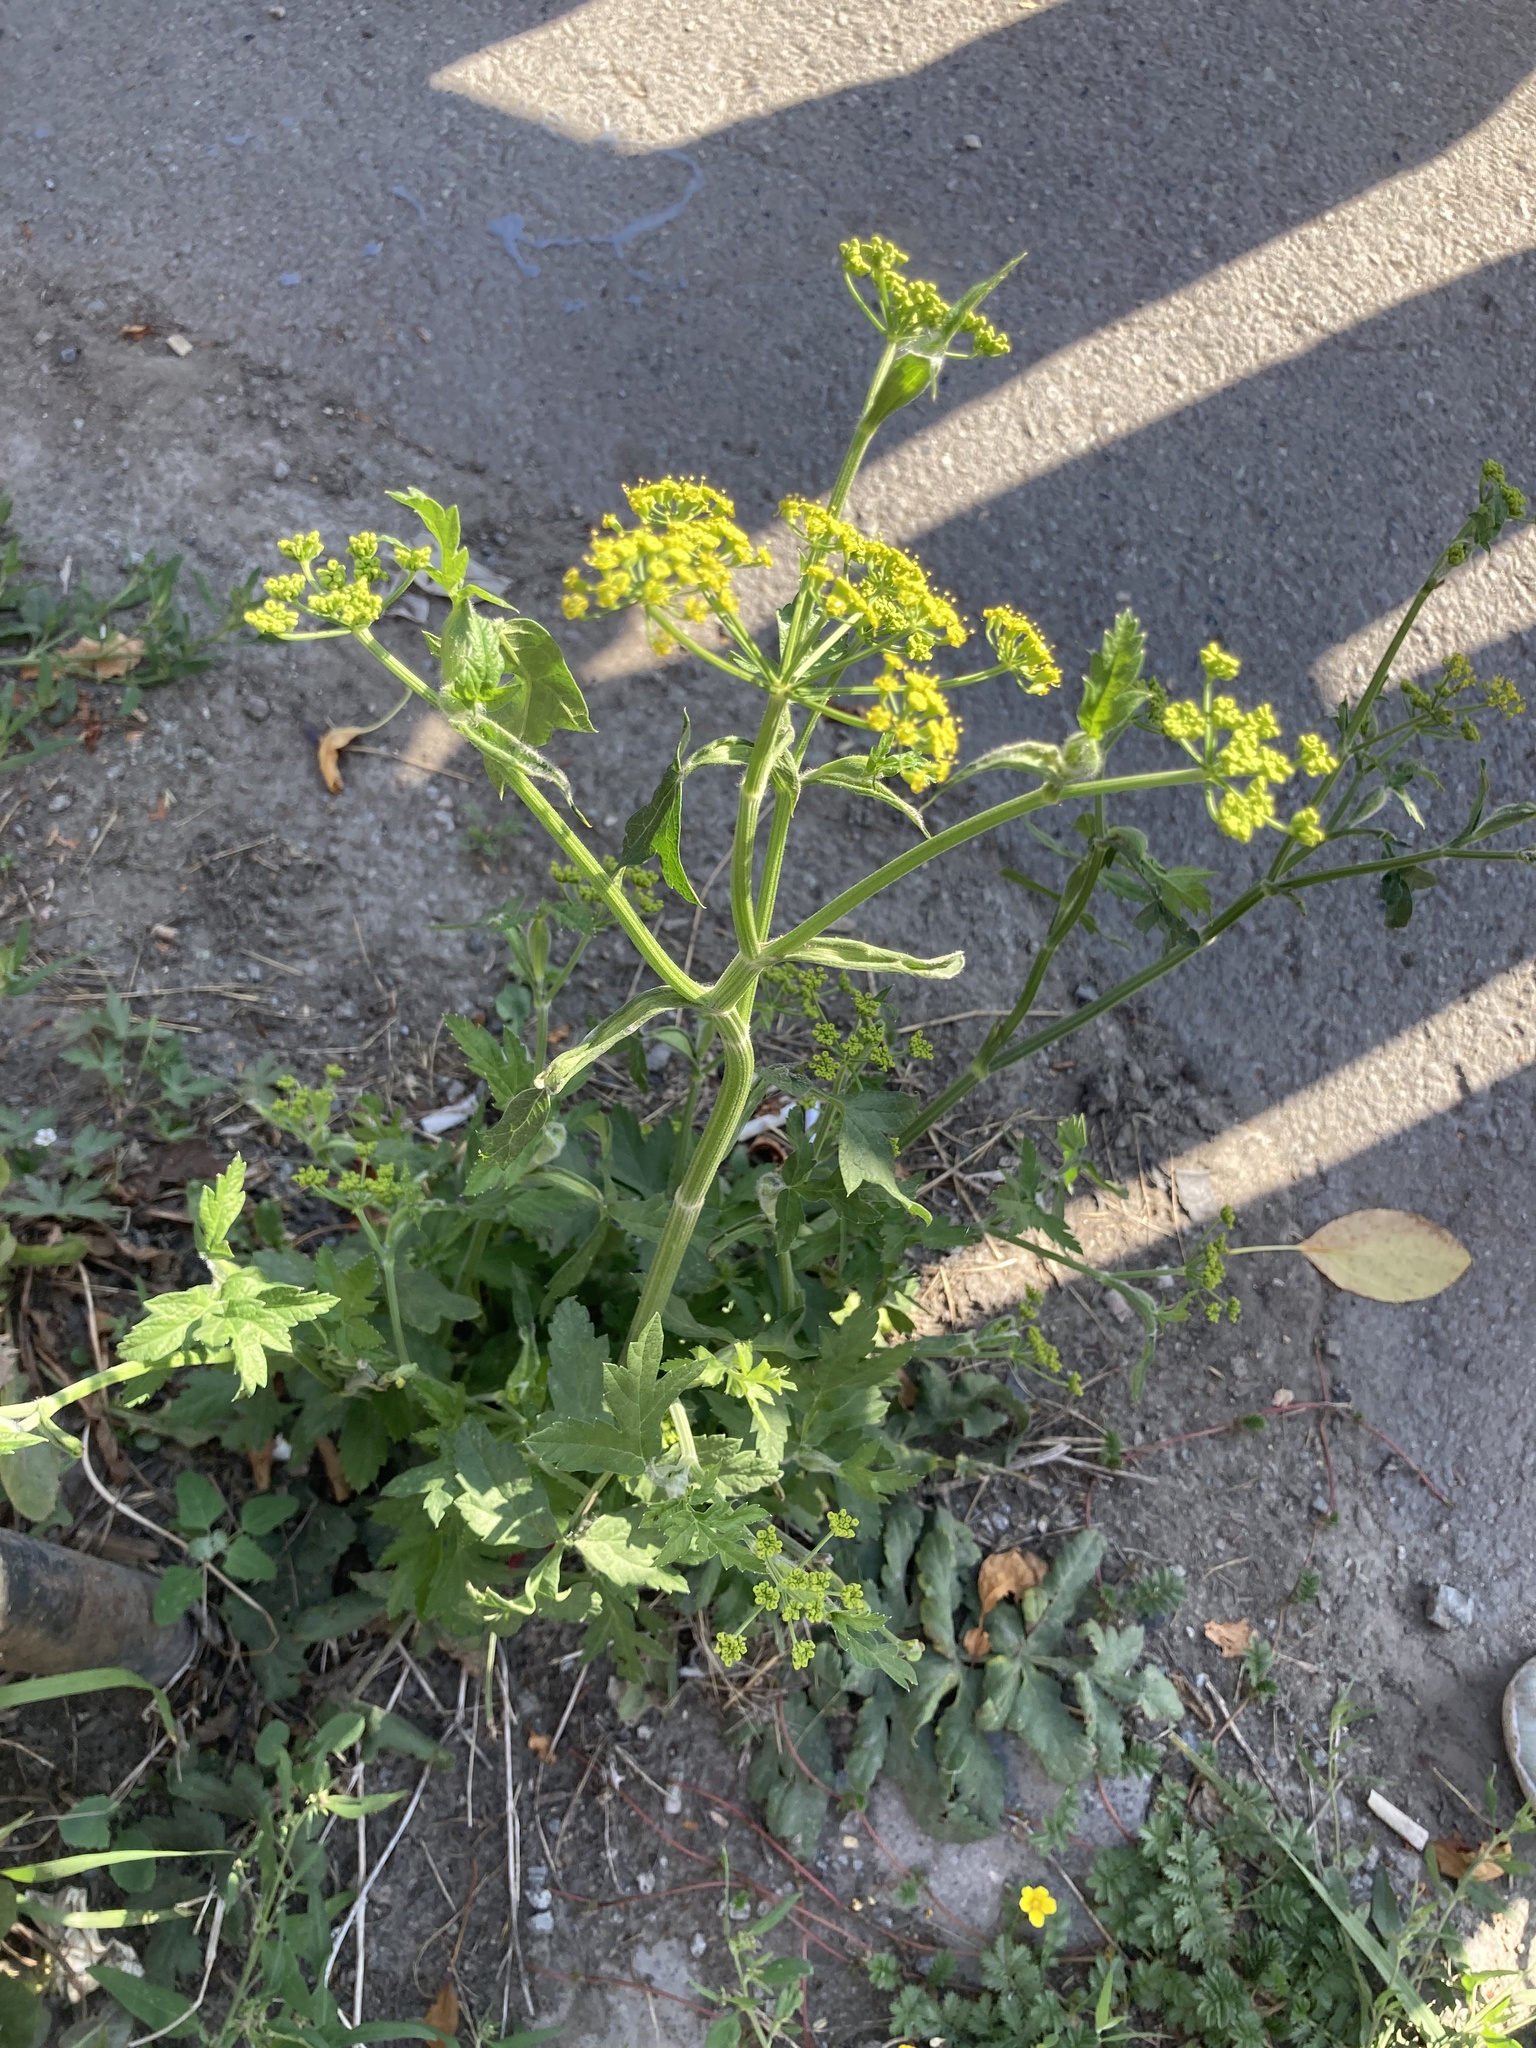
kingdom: Plantae
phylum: Tracheophyta
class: Magnoliopsida
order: Apiales
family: Apiaceae
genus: Pastinaca
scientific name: Pastinaca sativa
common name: Wild parsnip
